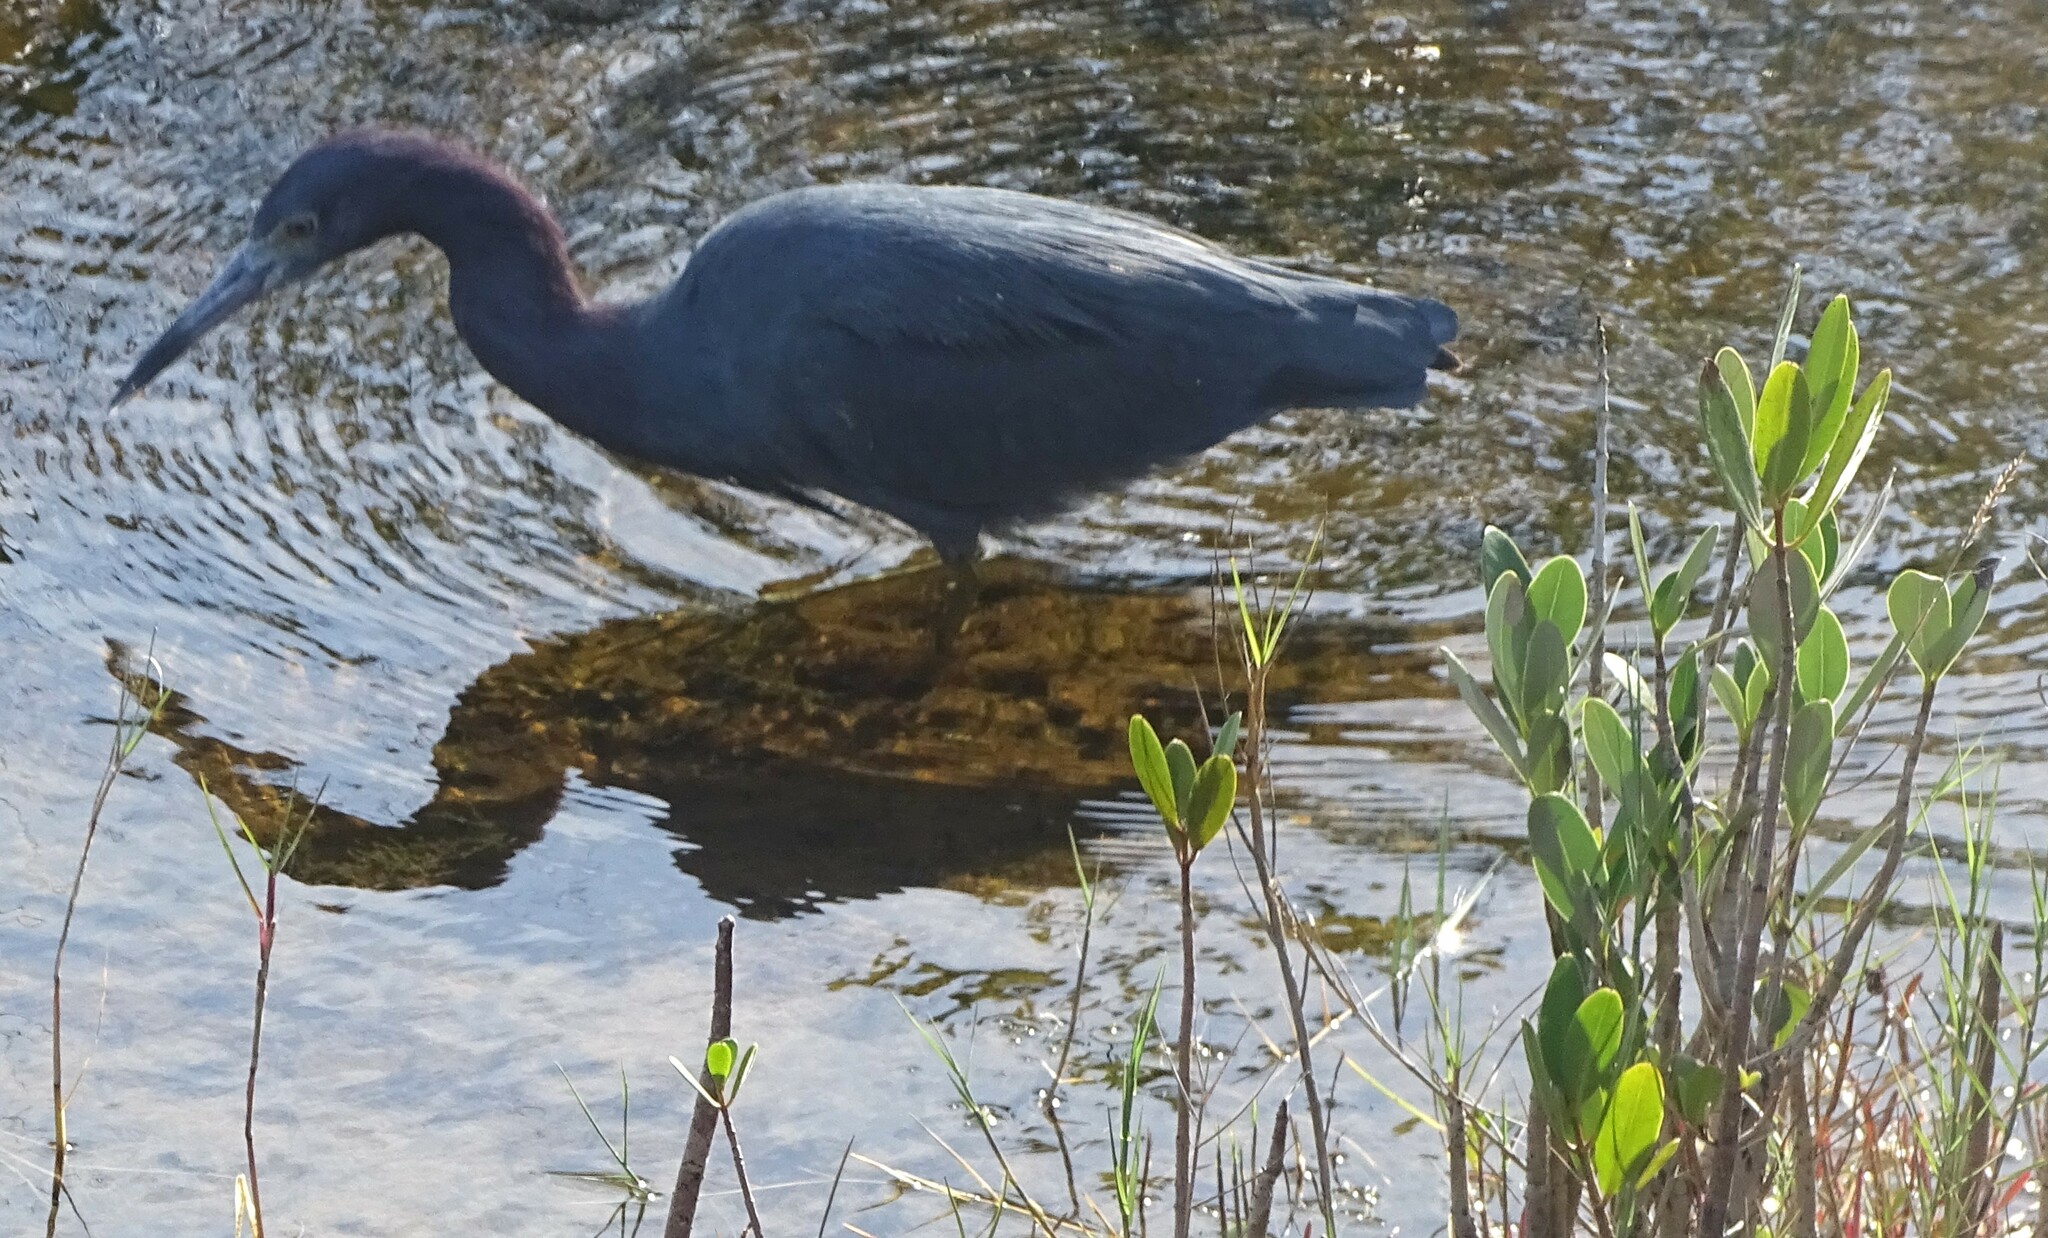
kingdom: Animalia
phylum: Chordata
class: Aves
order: Pelecaniformes
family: Ardeidae
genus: Egretta
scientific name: Egretta caerulea
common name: Little blue heron
